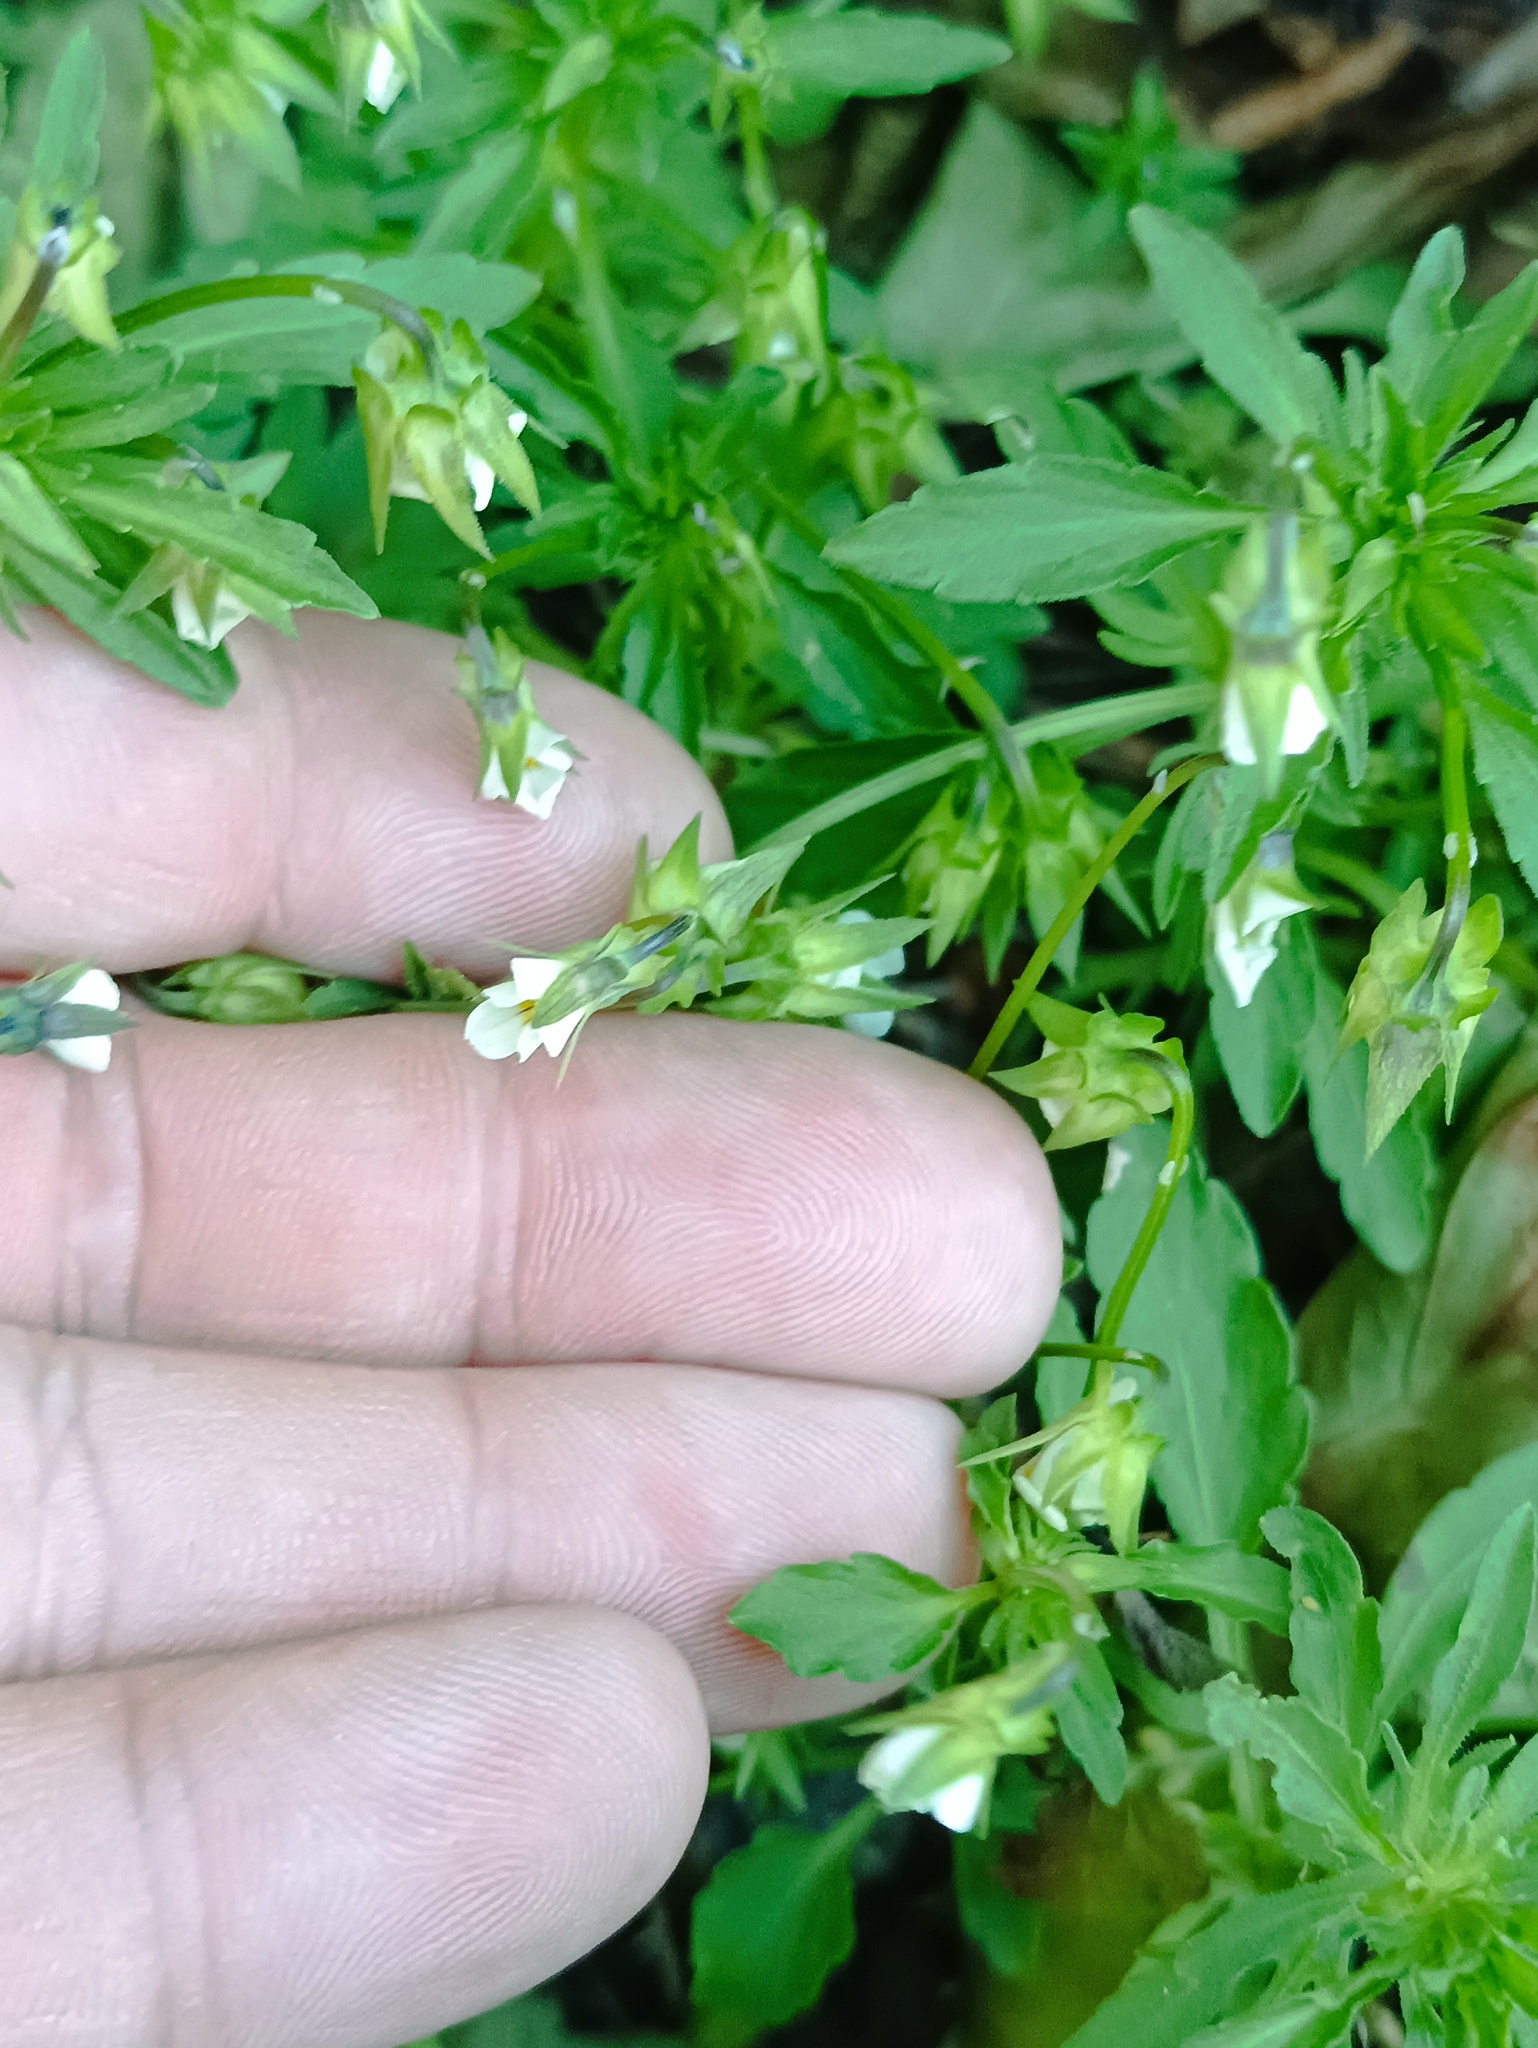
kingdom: Plantae
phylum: Tracheophyta
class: Magnoliopsida
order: Malpighiales
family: Violaceae
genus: Viola
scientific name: Viola arvensis
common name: Field pansy
